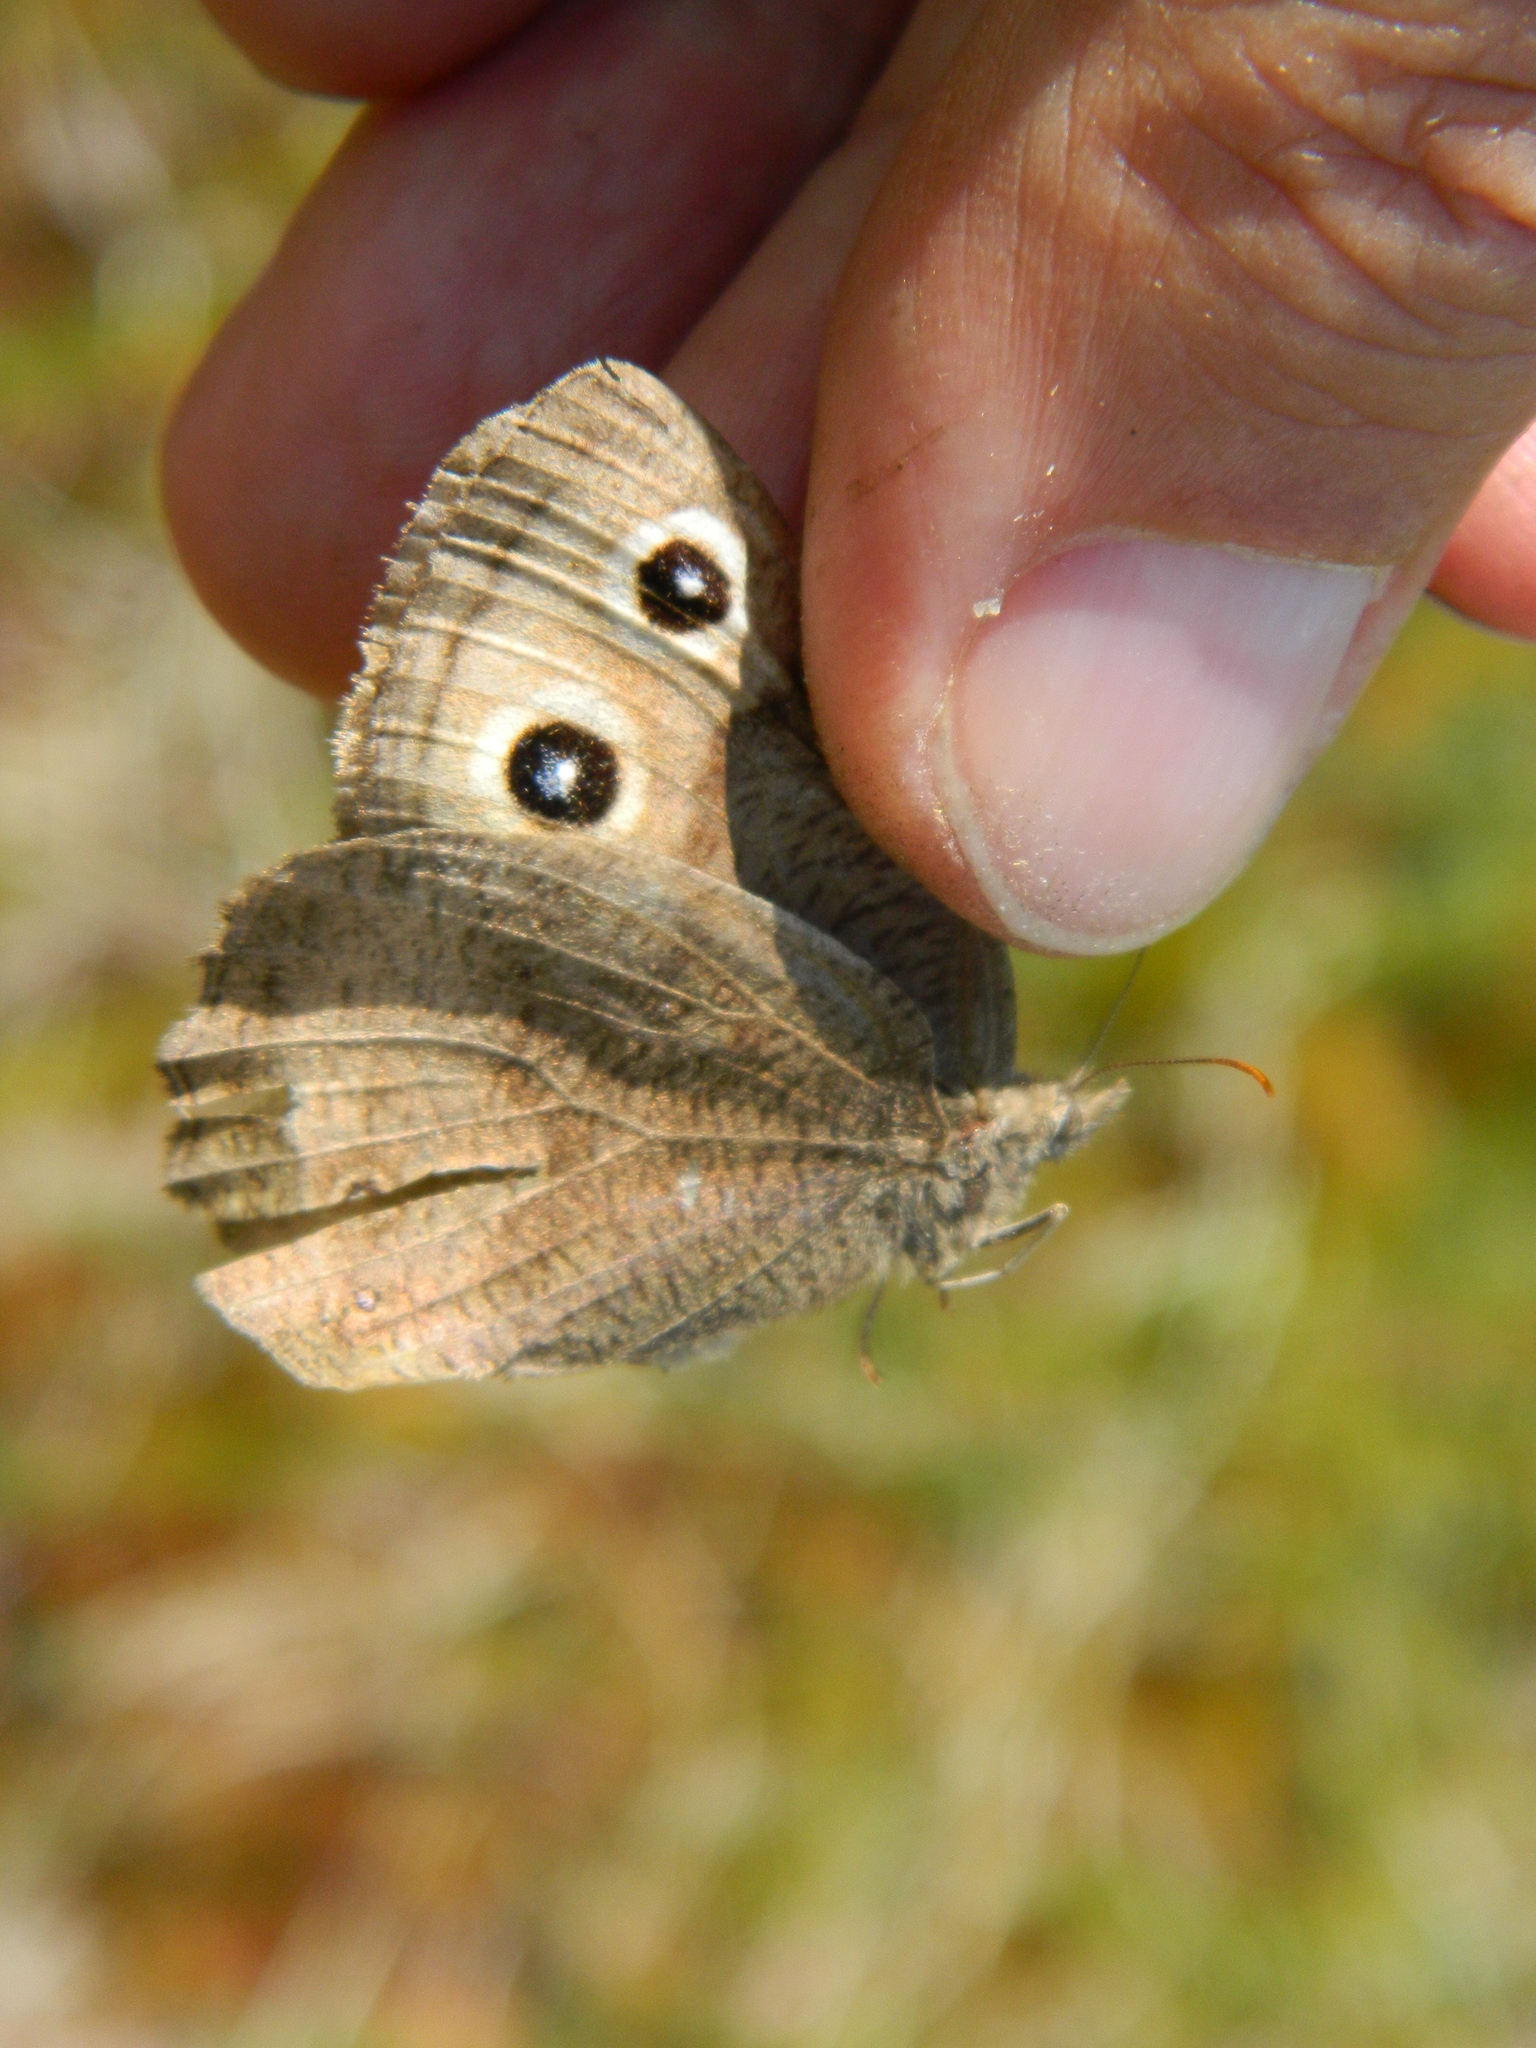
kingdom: Animalia
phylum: Arthropoda
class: Insecta
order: Lepidoptera
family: Nymphalidae
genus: Cercyonis
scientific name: Cercyonis pegala
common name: Common wood-nymph
